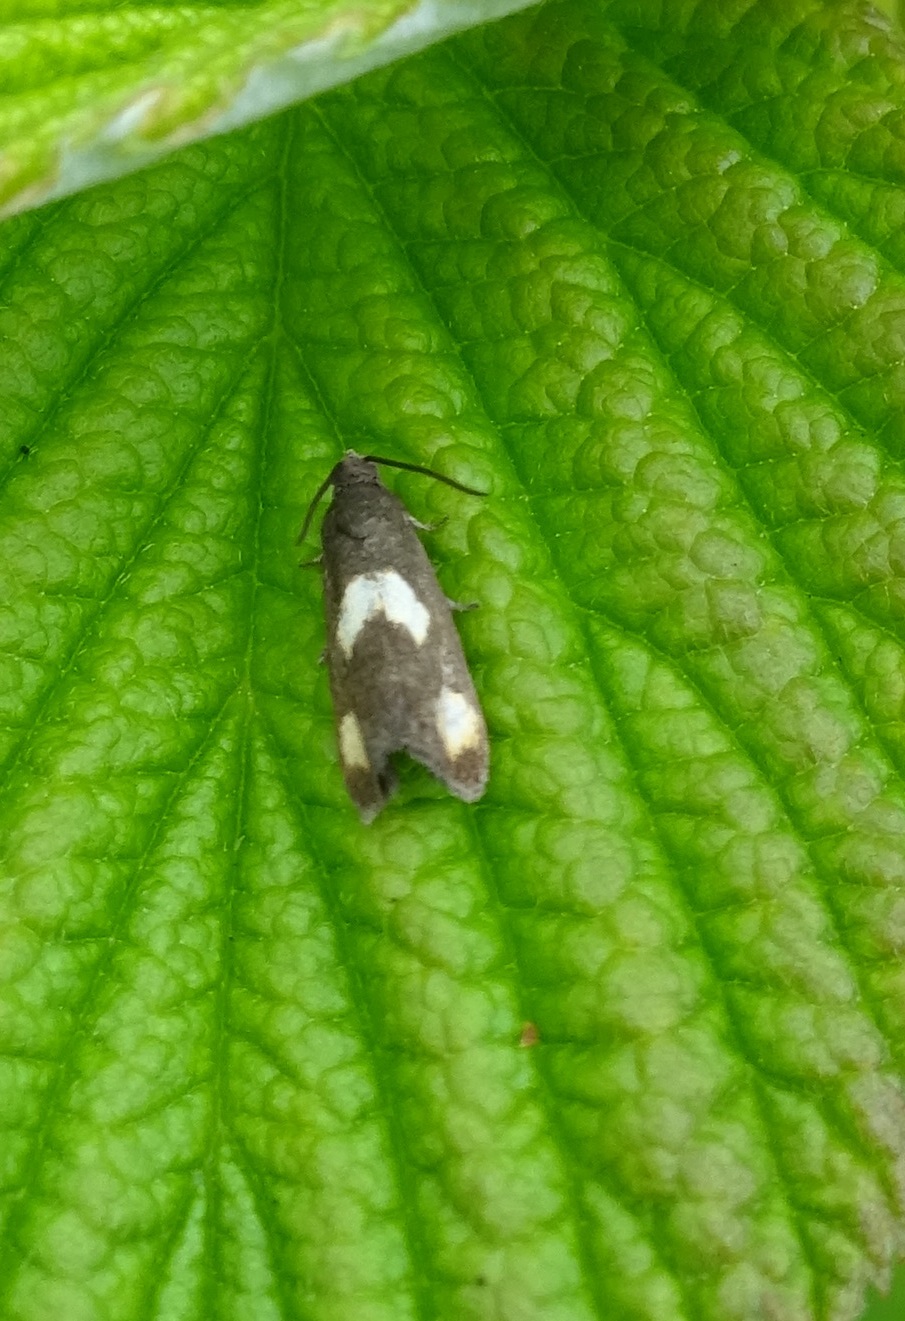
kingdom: Animalia
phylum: Arthropoda
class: Insecta
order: Lepidoptera
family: Tortricidae
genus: Pammene
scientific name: Pammene aurana
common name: Orange-spot piercer
